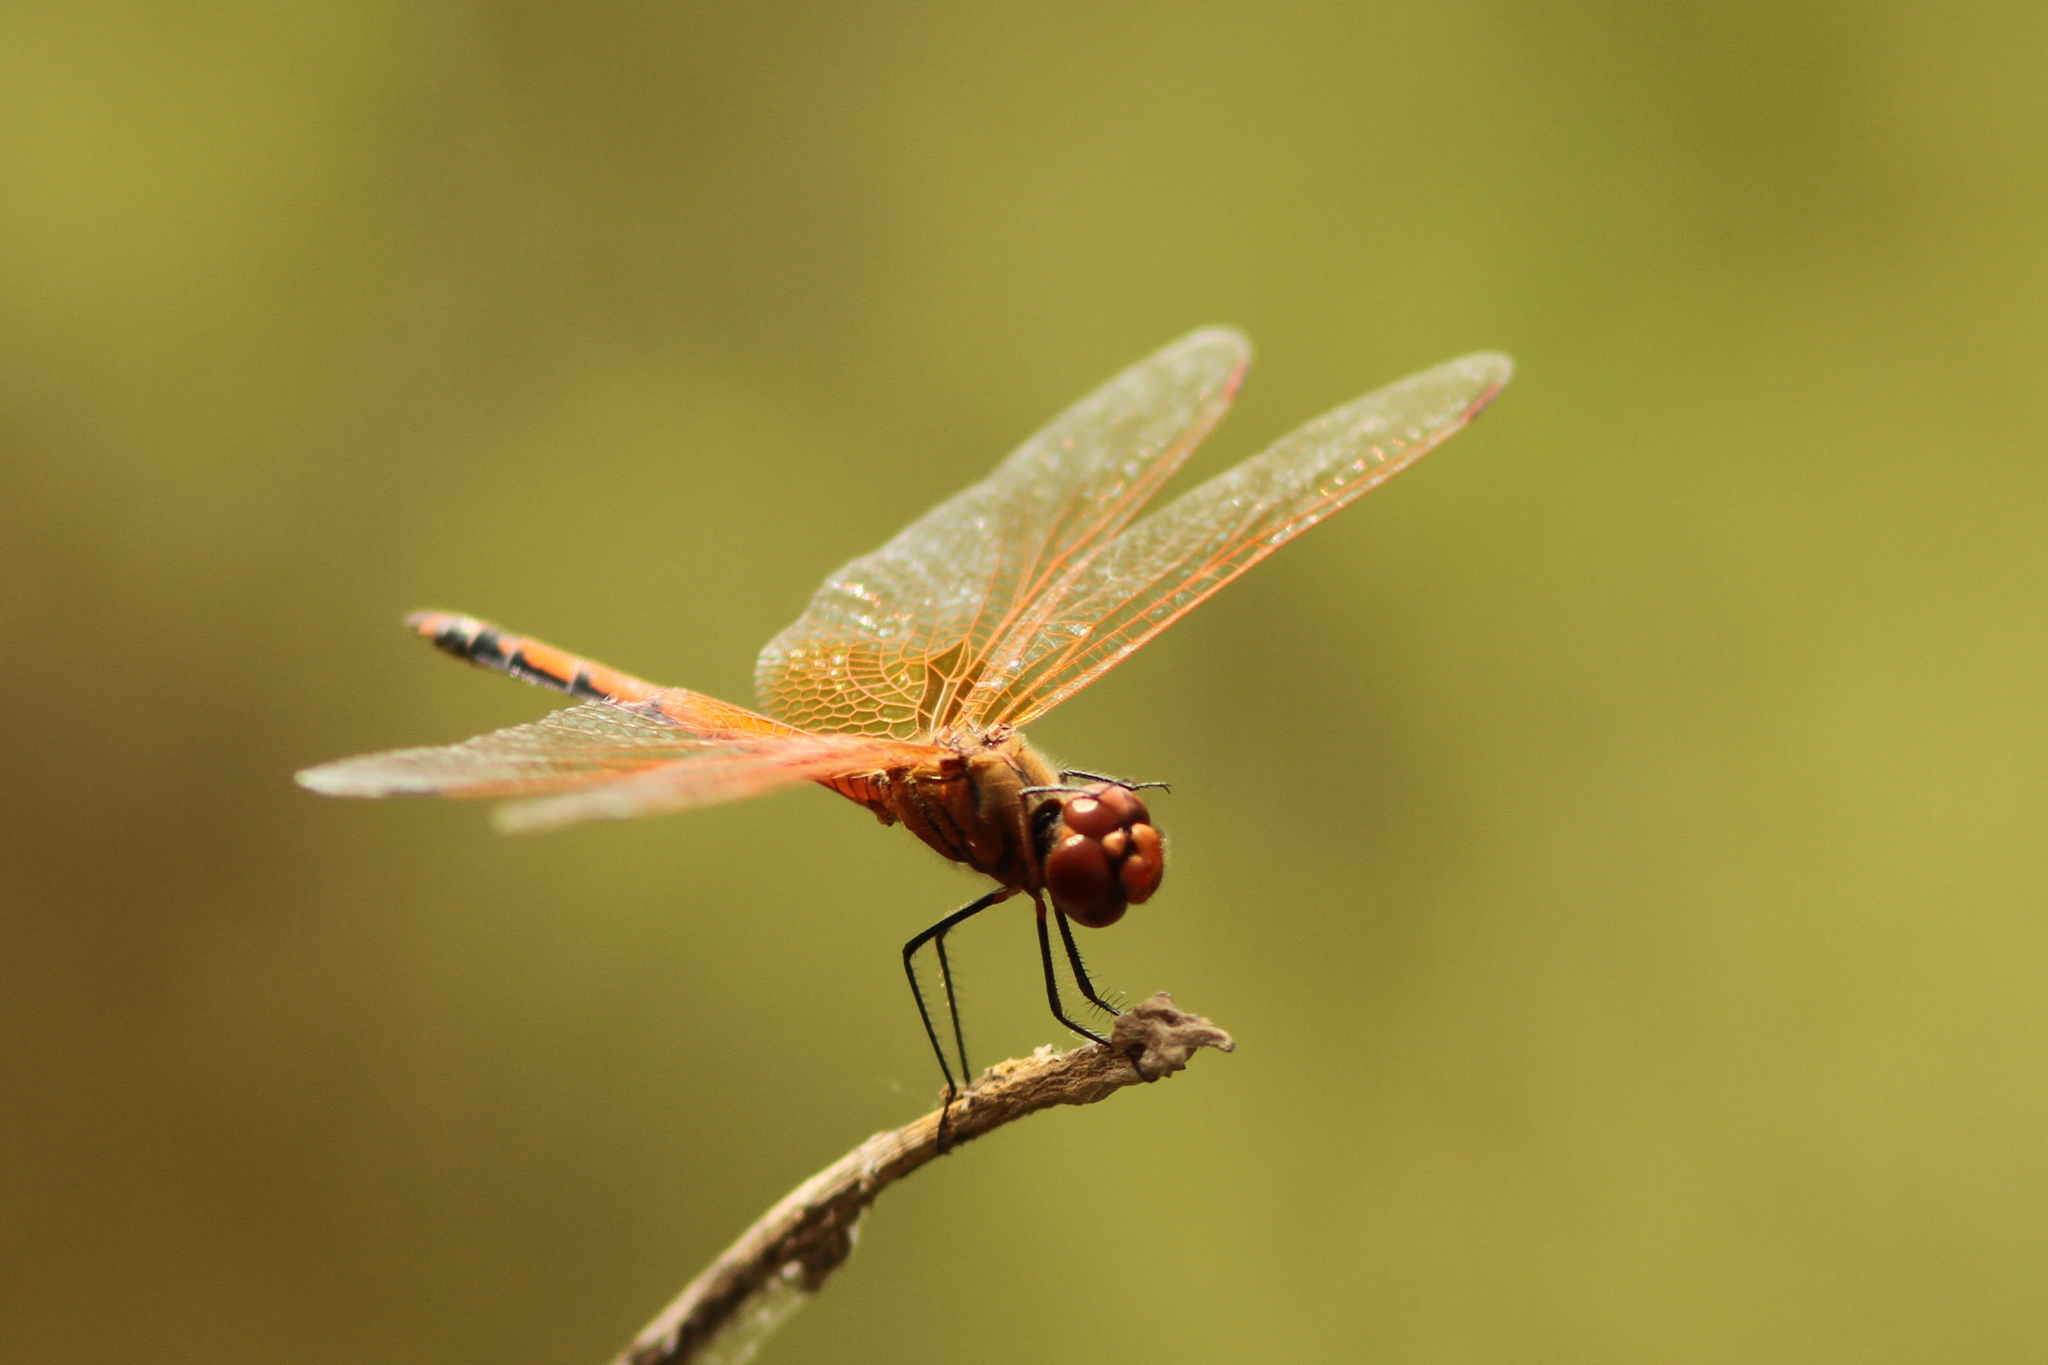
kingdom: Animalia
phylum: Arthropoda
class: Insecta
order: Odonata
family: Libellulidae
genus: Trithemis
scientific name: Trithemis arteriosa
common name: Red-veined dropwing
